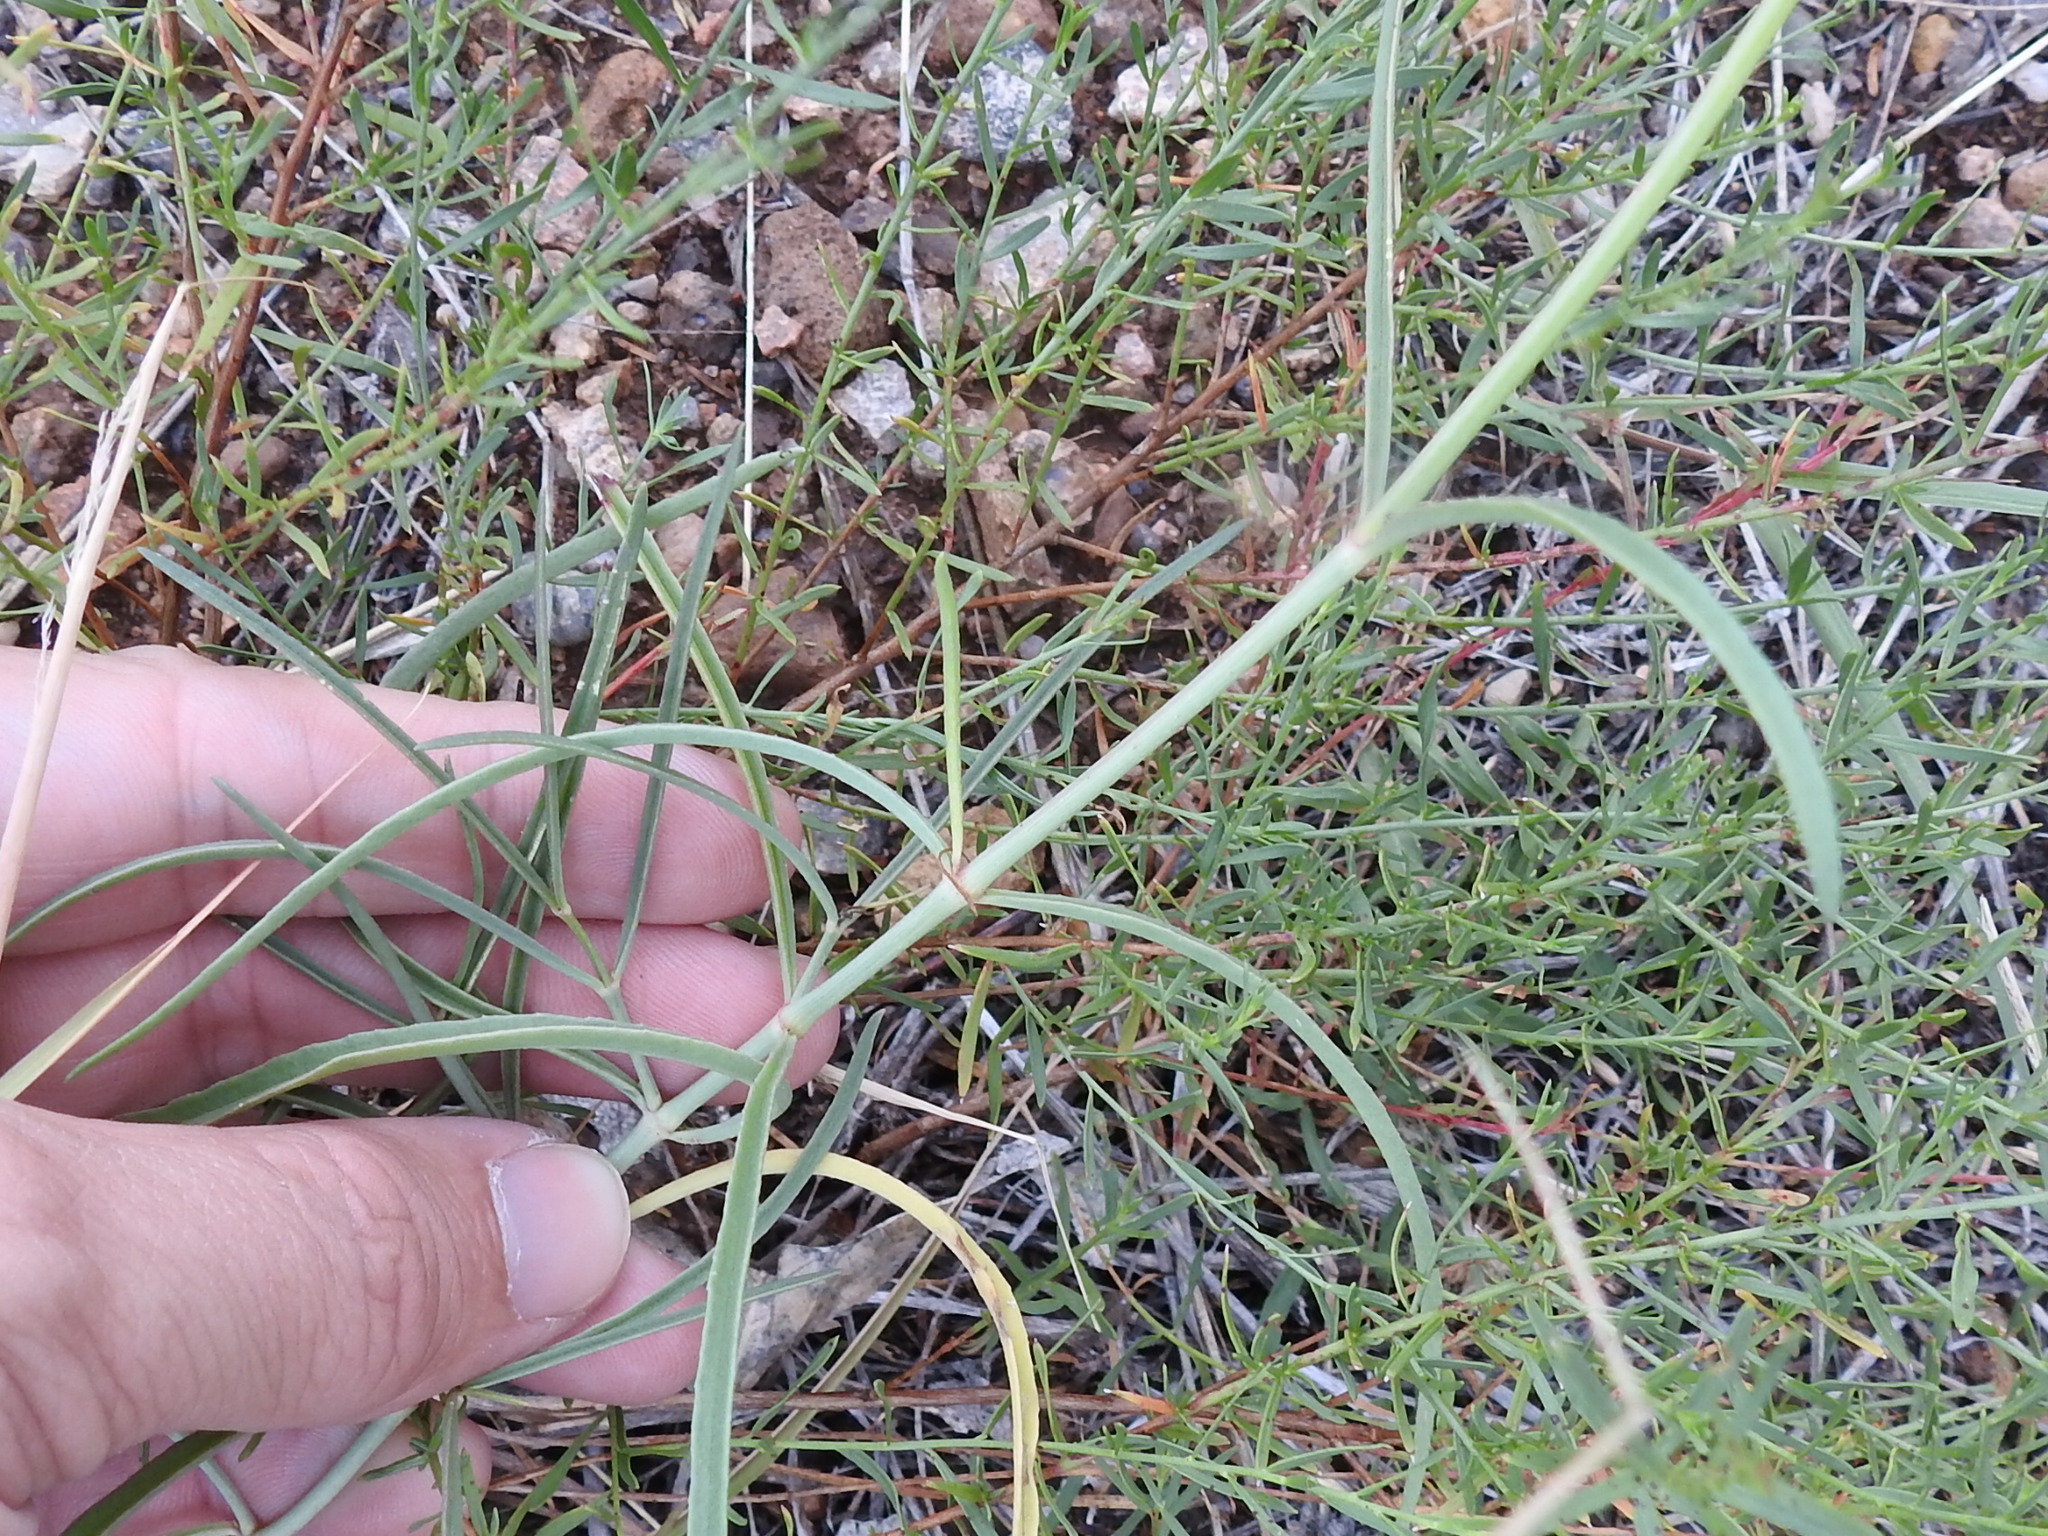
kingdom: Plantae
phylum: Tracheophyta
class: Magnoliopsida
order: Caryophyllales
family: Nyctaginaceae
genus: Mirabilis
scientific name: Mirabilis linearis
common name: Linear-leaved four-o'clock
